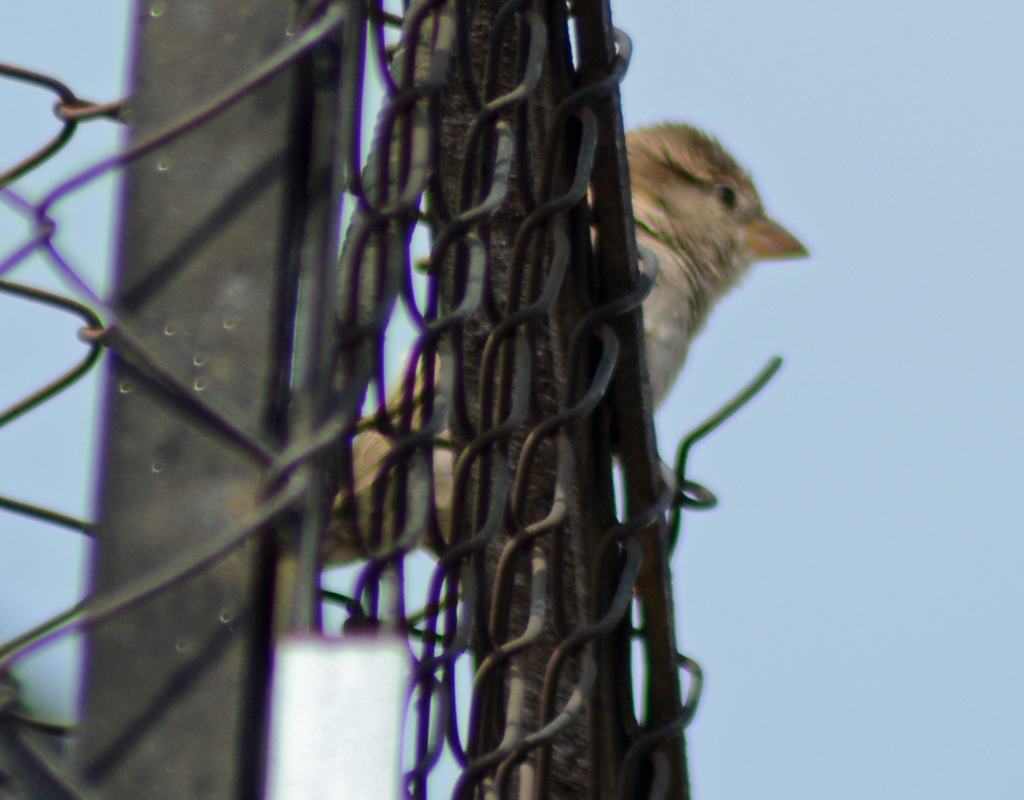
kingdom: Animalia
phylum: Chordata
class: Aves
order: Passeriformes
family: Passeridae
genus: Passer
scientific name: Passer domesticus
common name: House sparrow
